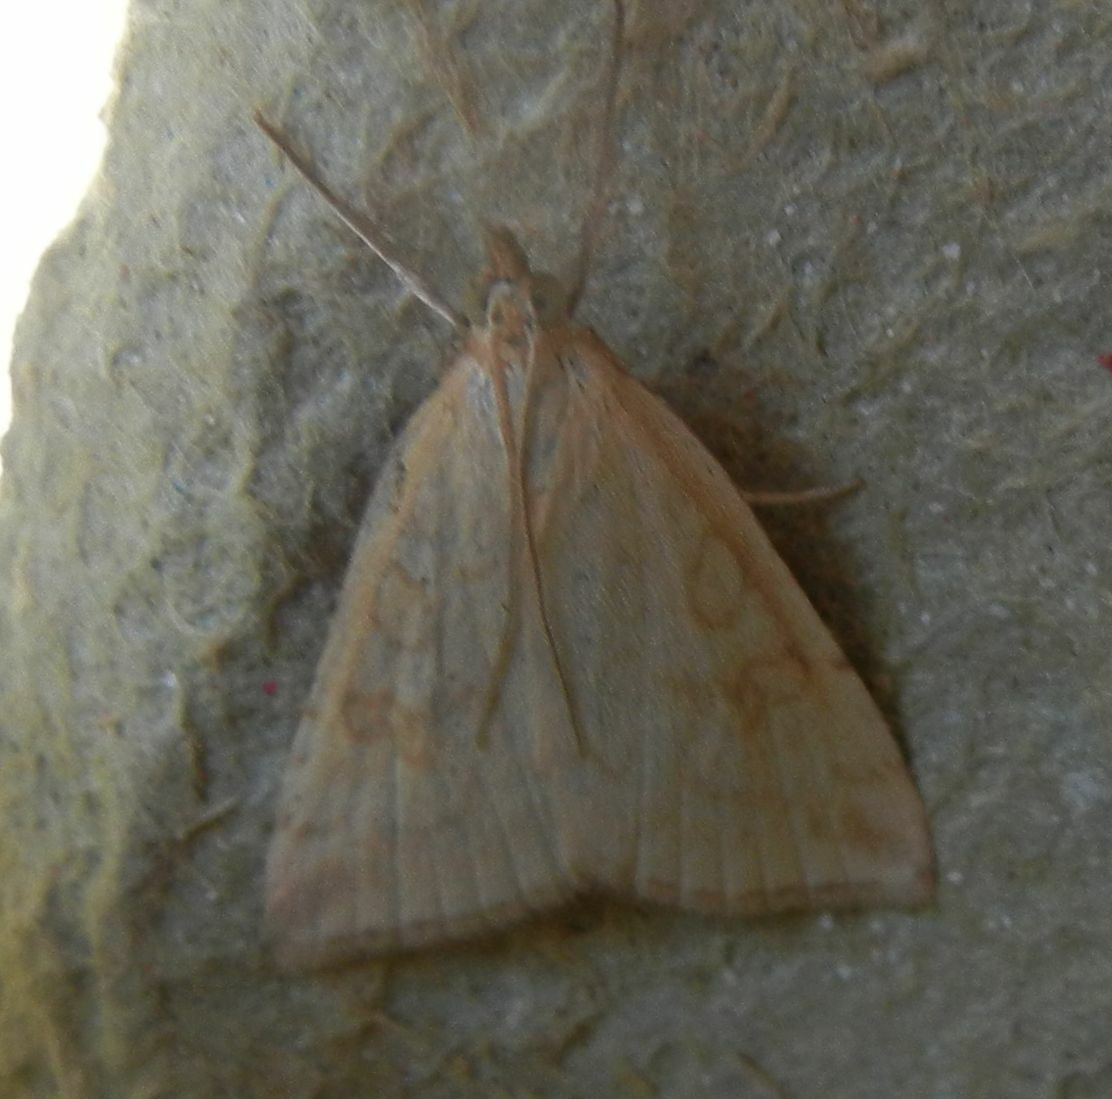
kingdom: Animalia
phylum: Arthropoda
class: Insecta
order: Lepidoptera
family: Crambidae
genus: Udea
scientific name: Udea lutealis
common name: Pale straw pearl
